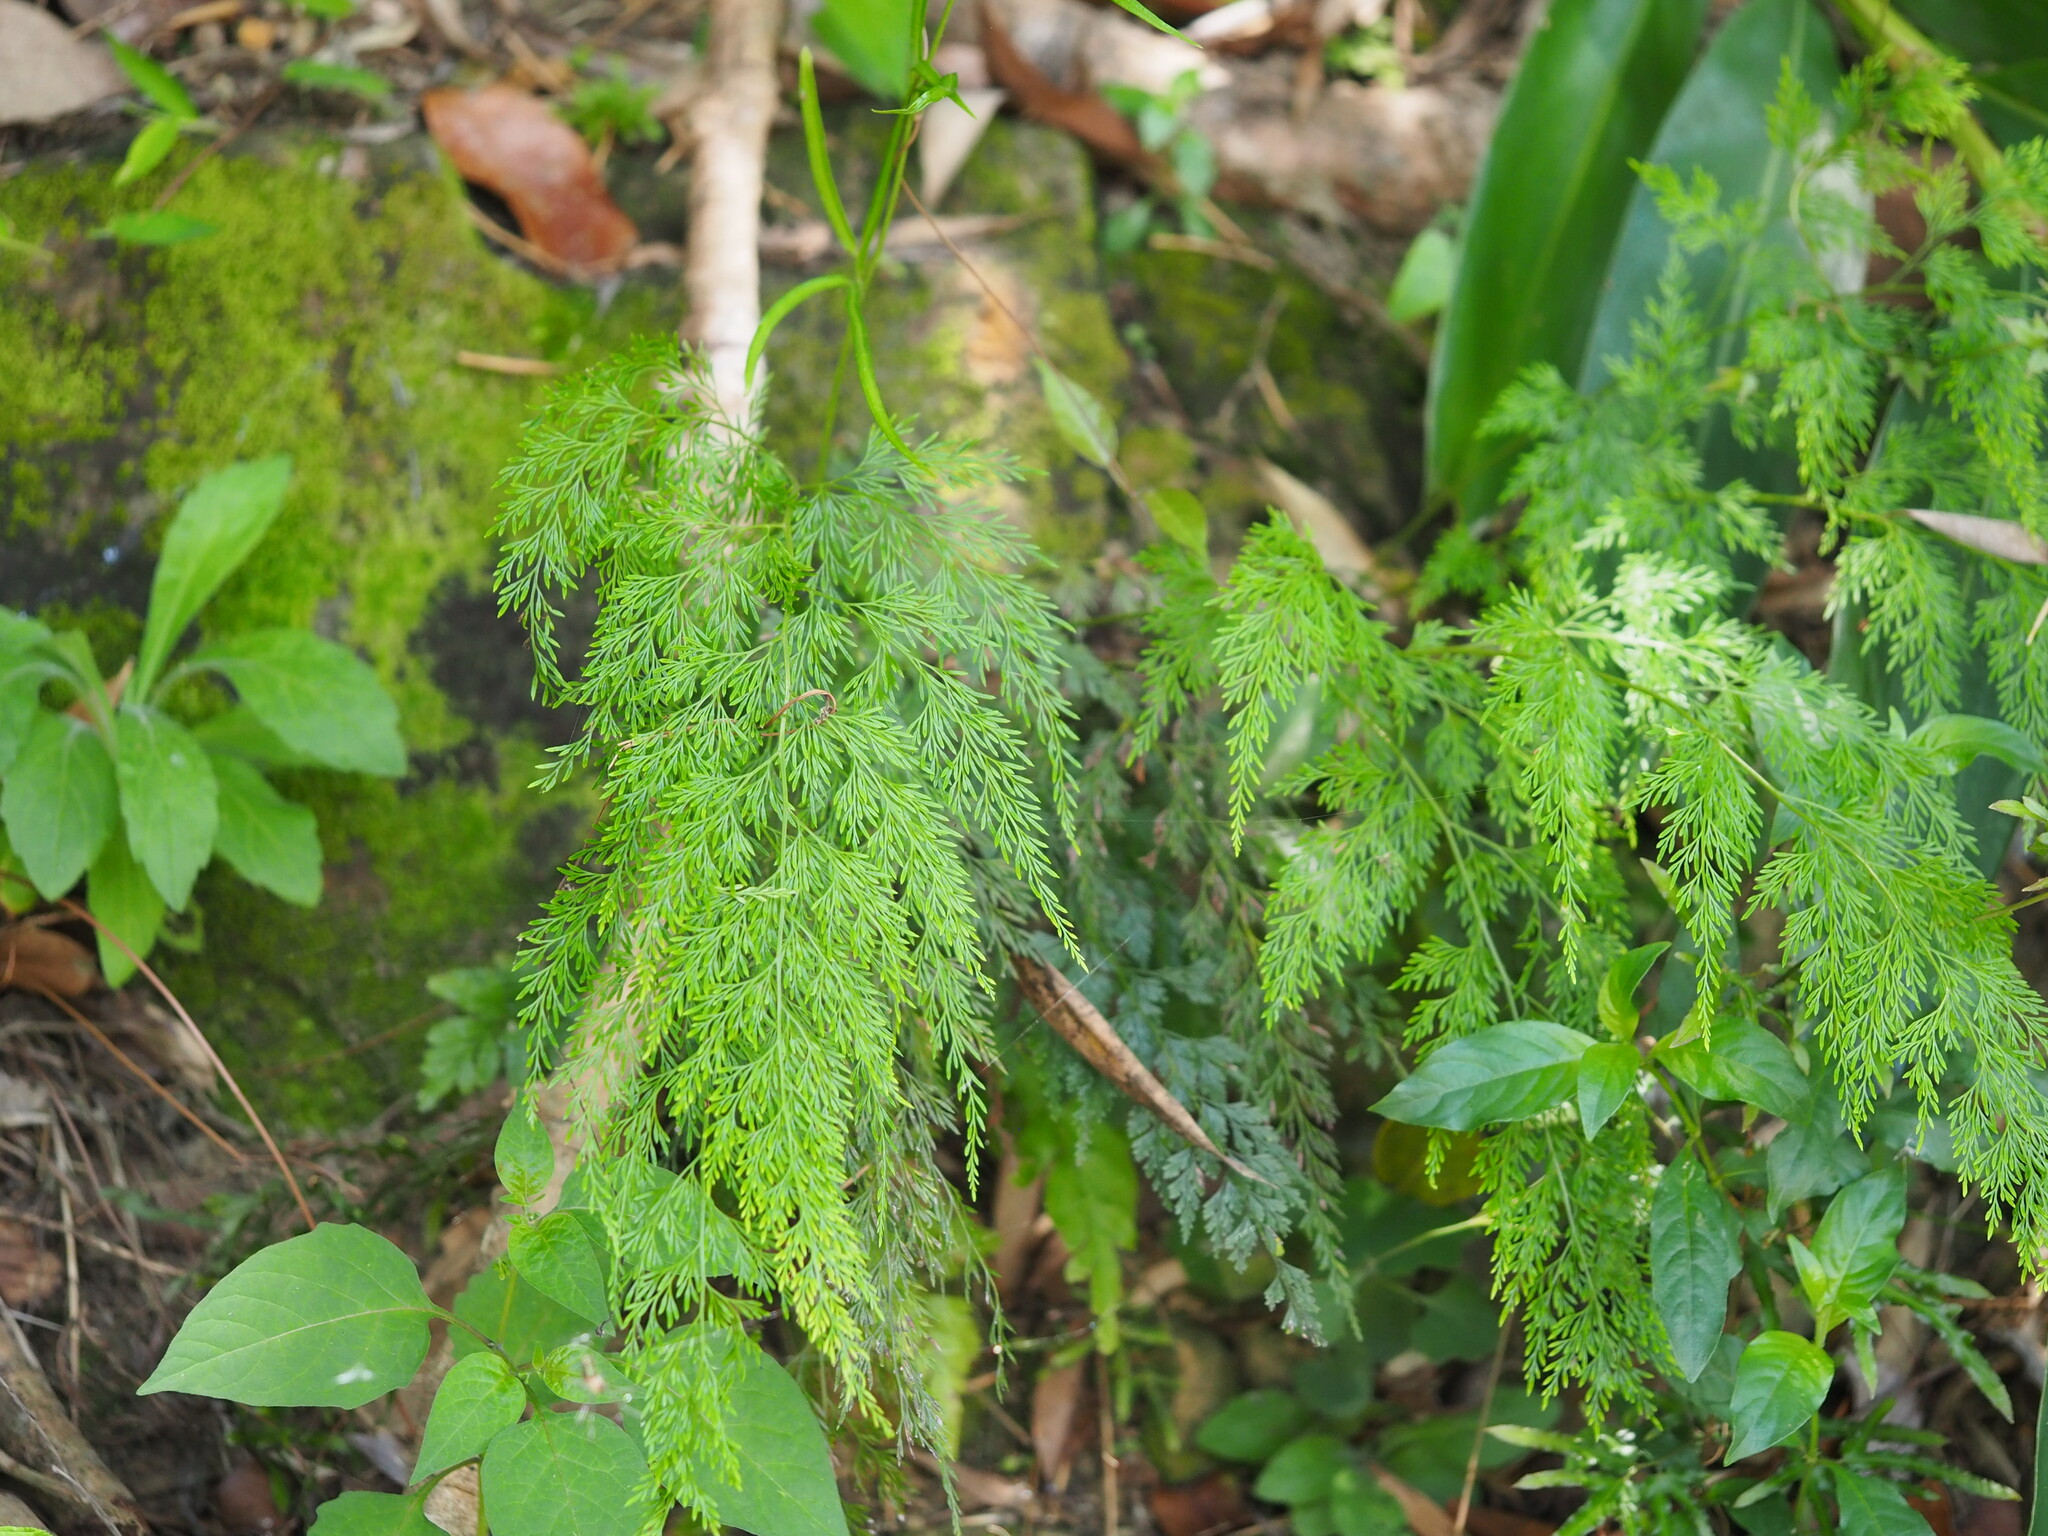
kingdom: Plantae
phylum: Tracheophyta
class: Polypodiopsida
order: Polypodiales
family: Pteridaceae
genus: Onychium
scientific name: Onychium japonicum
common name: Carrot fern
